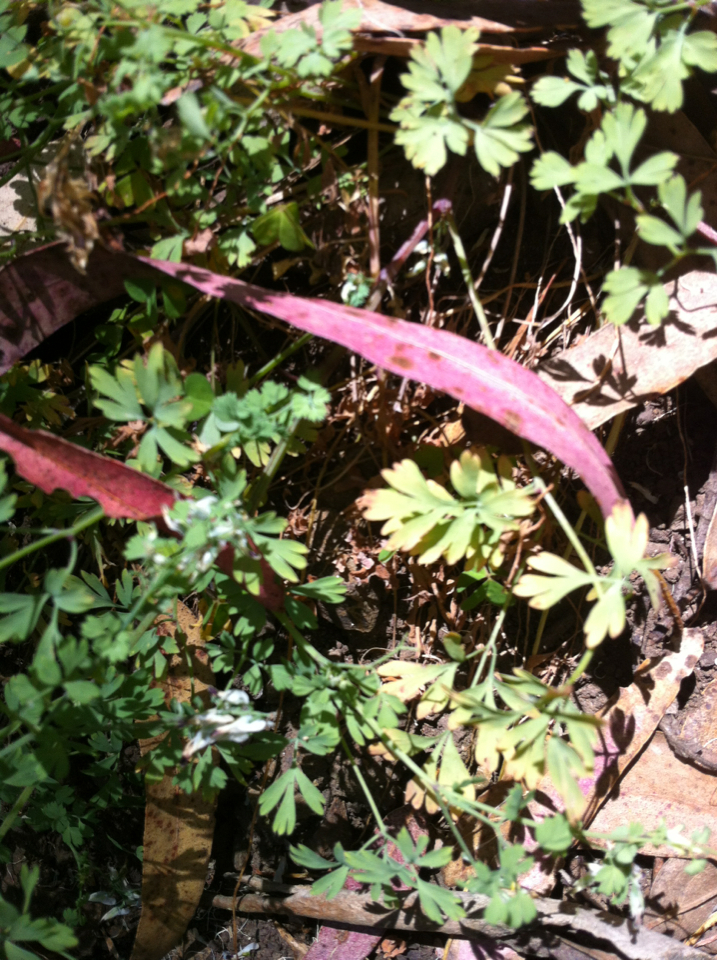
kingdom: Plantae
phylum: Tracheophyta
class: Magnoliopsida
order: Ranunculales
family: Papaveraceae
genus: Fumaria
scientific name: Fumaria capreolata
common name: White ramping-fumitory
